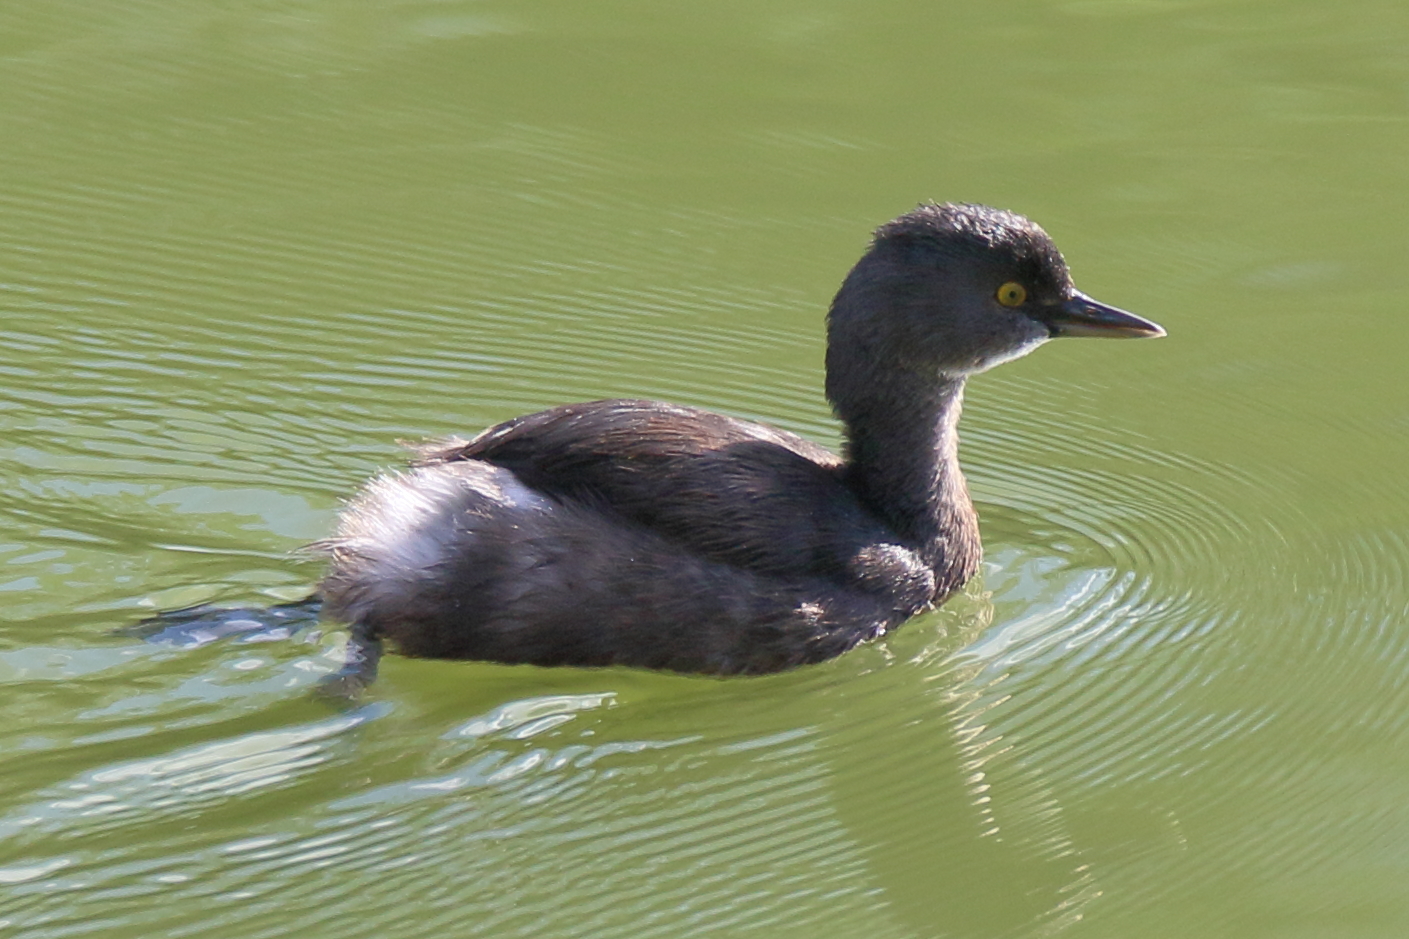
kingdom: Animalia
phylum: Chordata
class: Aves
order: Podicipediformes
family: Podicipedidae
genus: Tachybaptus
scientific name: Tachybaptus dominicus
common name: Least grebe
